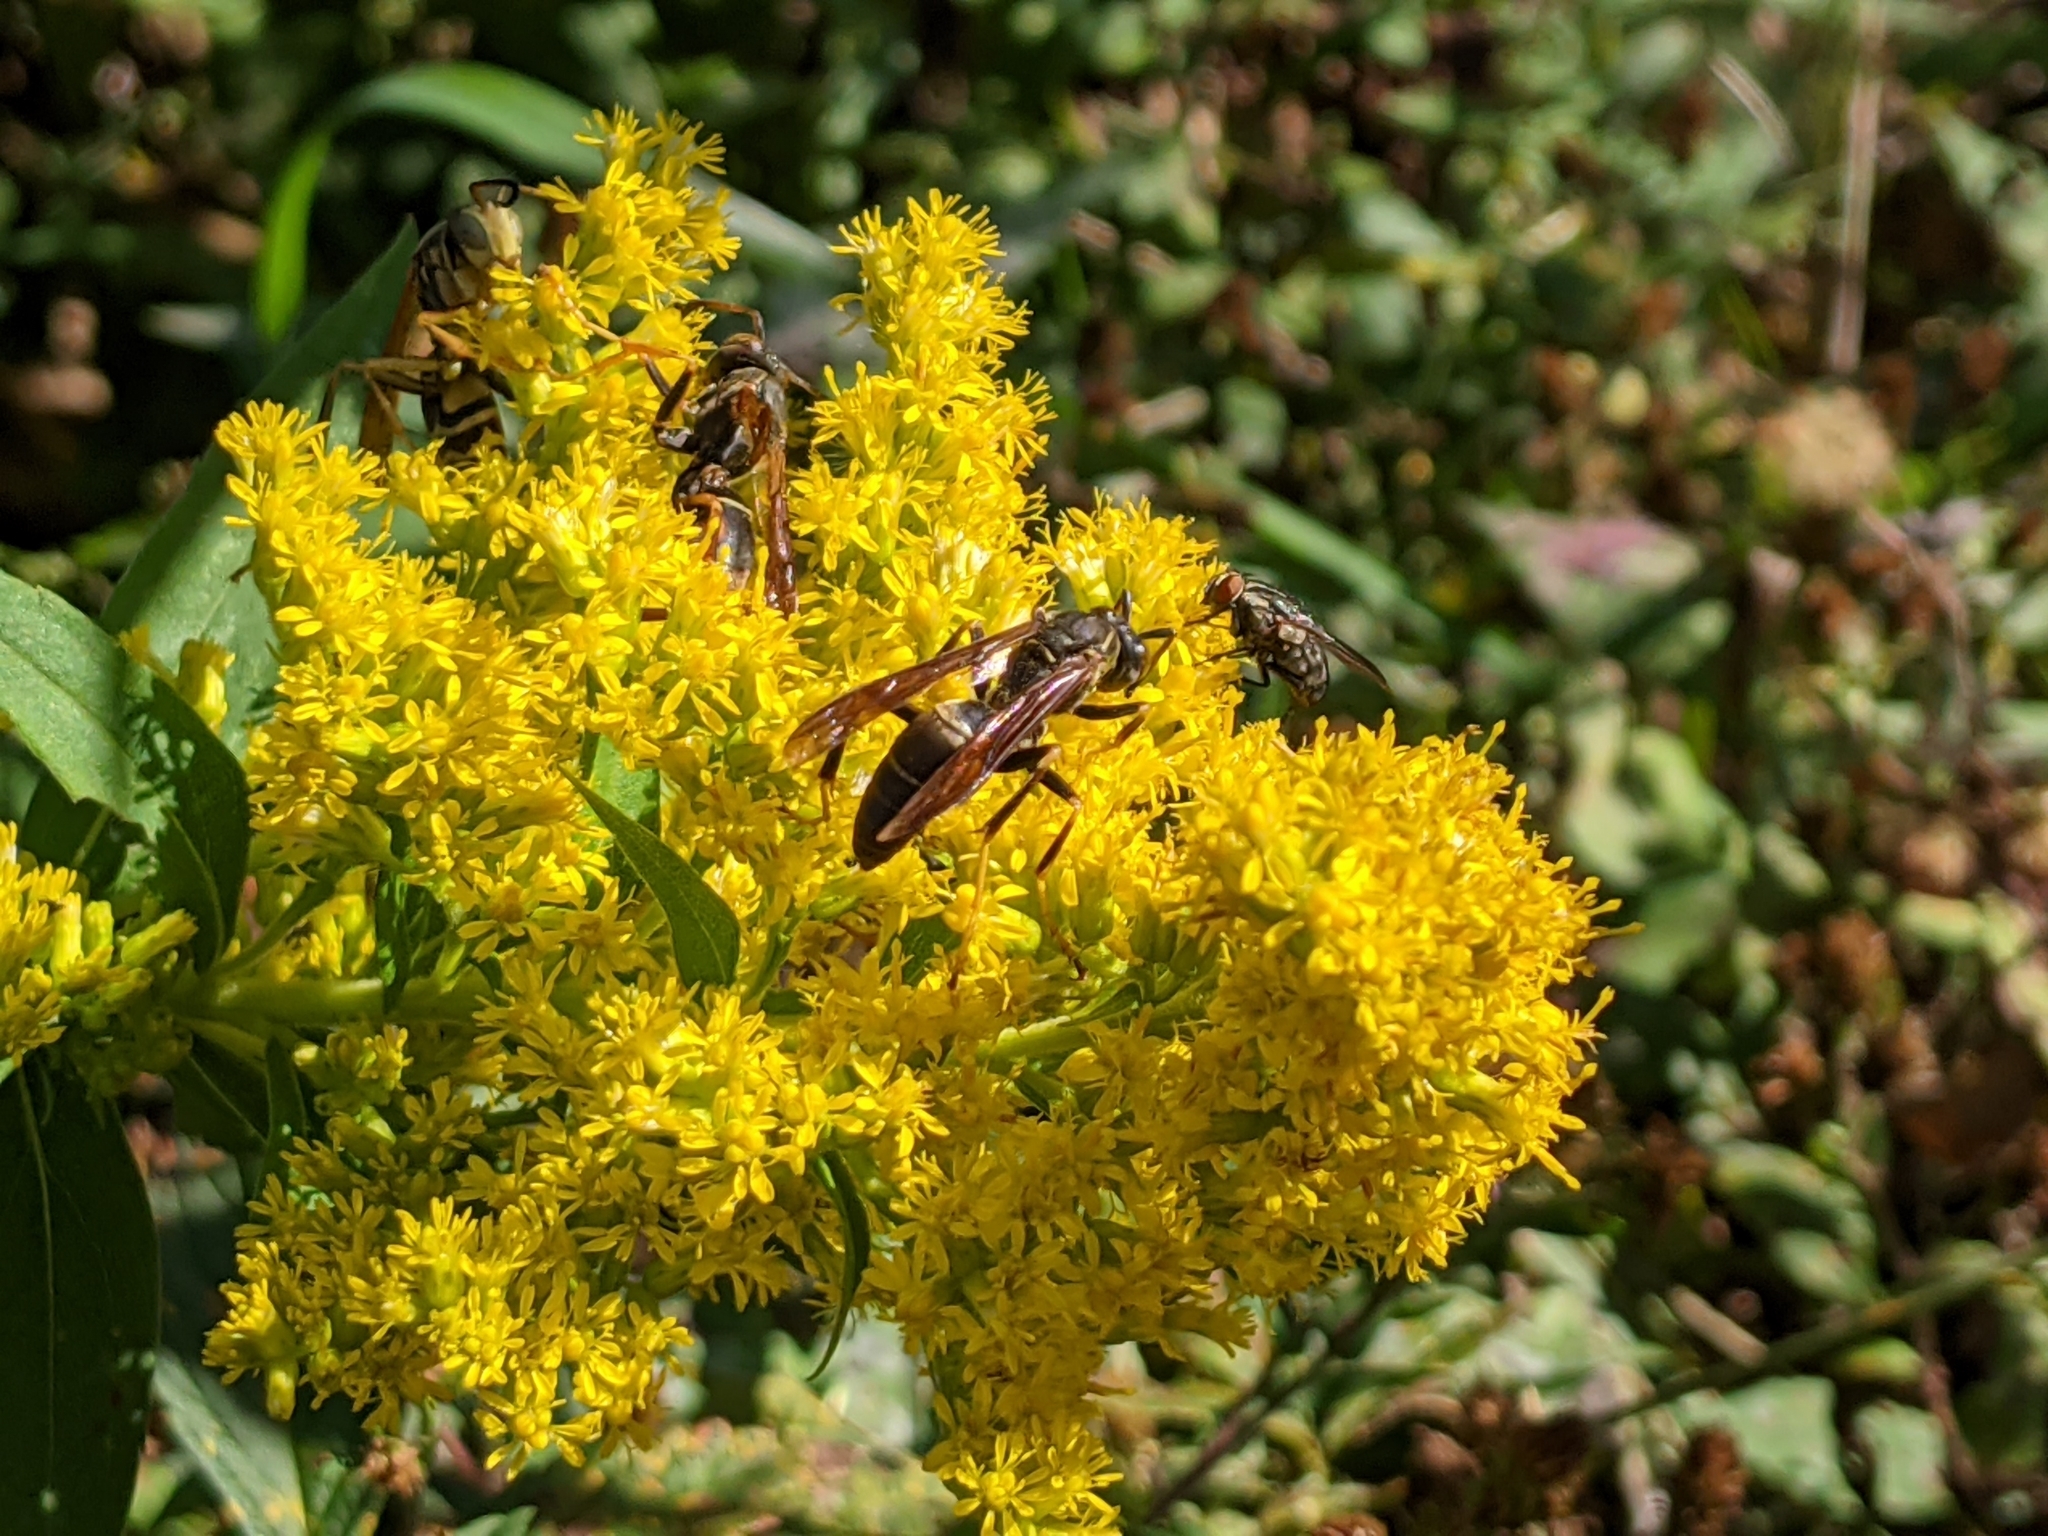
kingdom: Animalia
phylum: Arthropoda
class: Insecta
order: Hymenoptera
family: Eumenidae
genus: Polistes
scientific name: Polistes fuscatus
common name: Dark paper wasp
